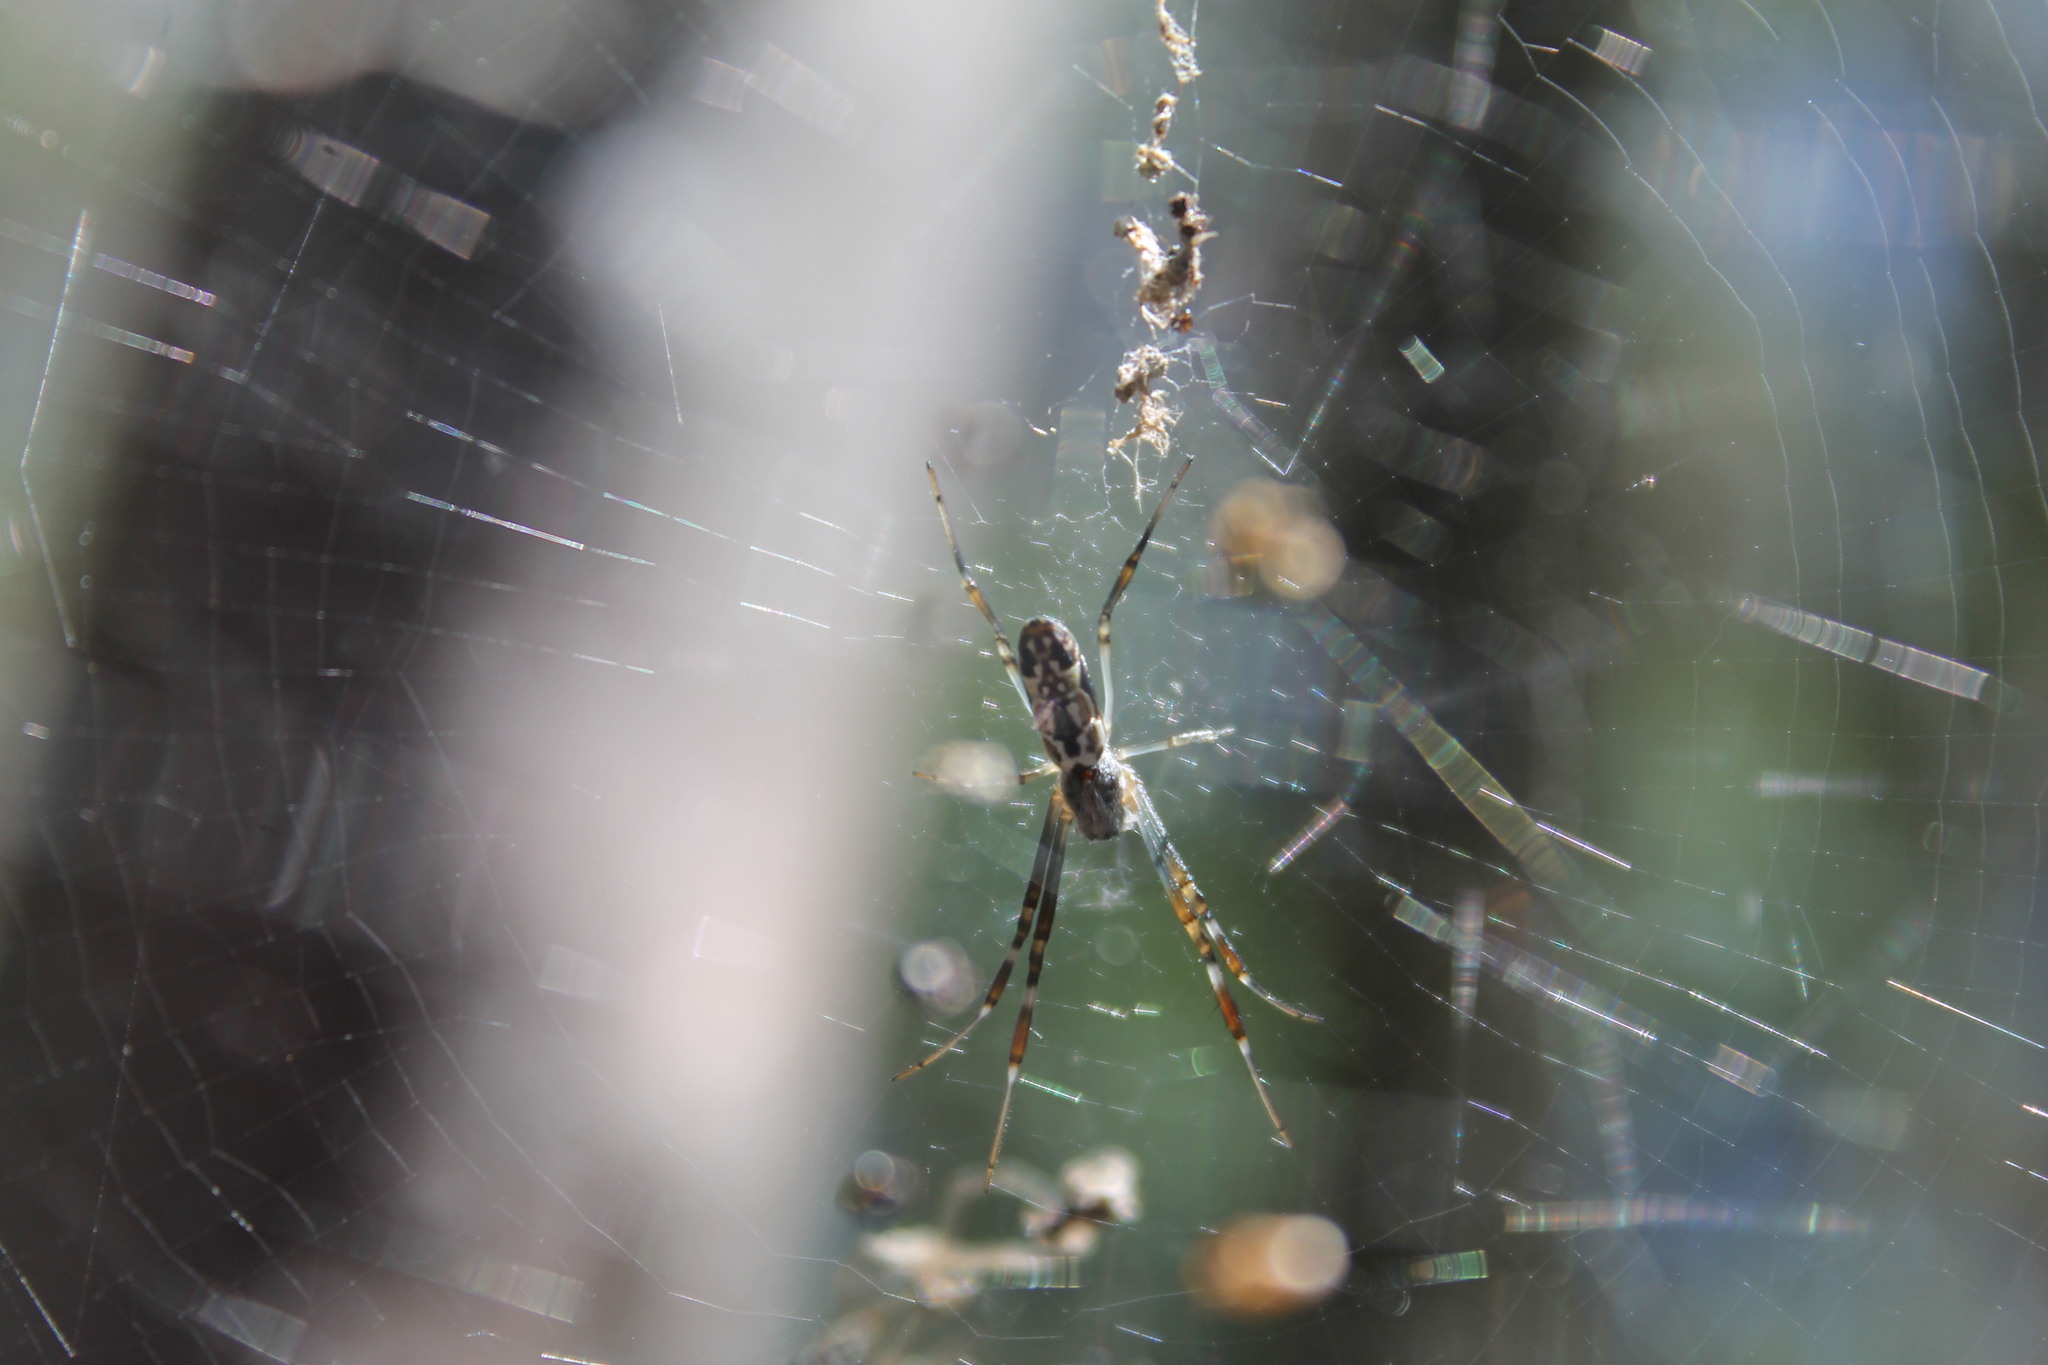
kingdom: Animalia
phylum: Arthropoda
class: Arachnida
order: Araneae
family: Araneidae
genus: Trichonephila
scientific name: Trichonephila edulis
